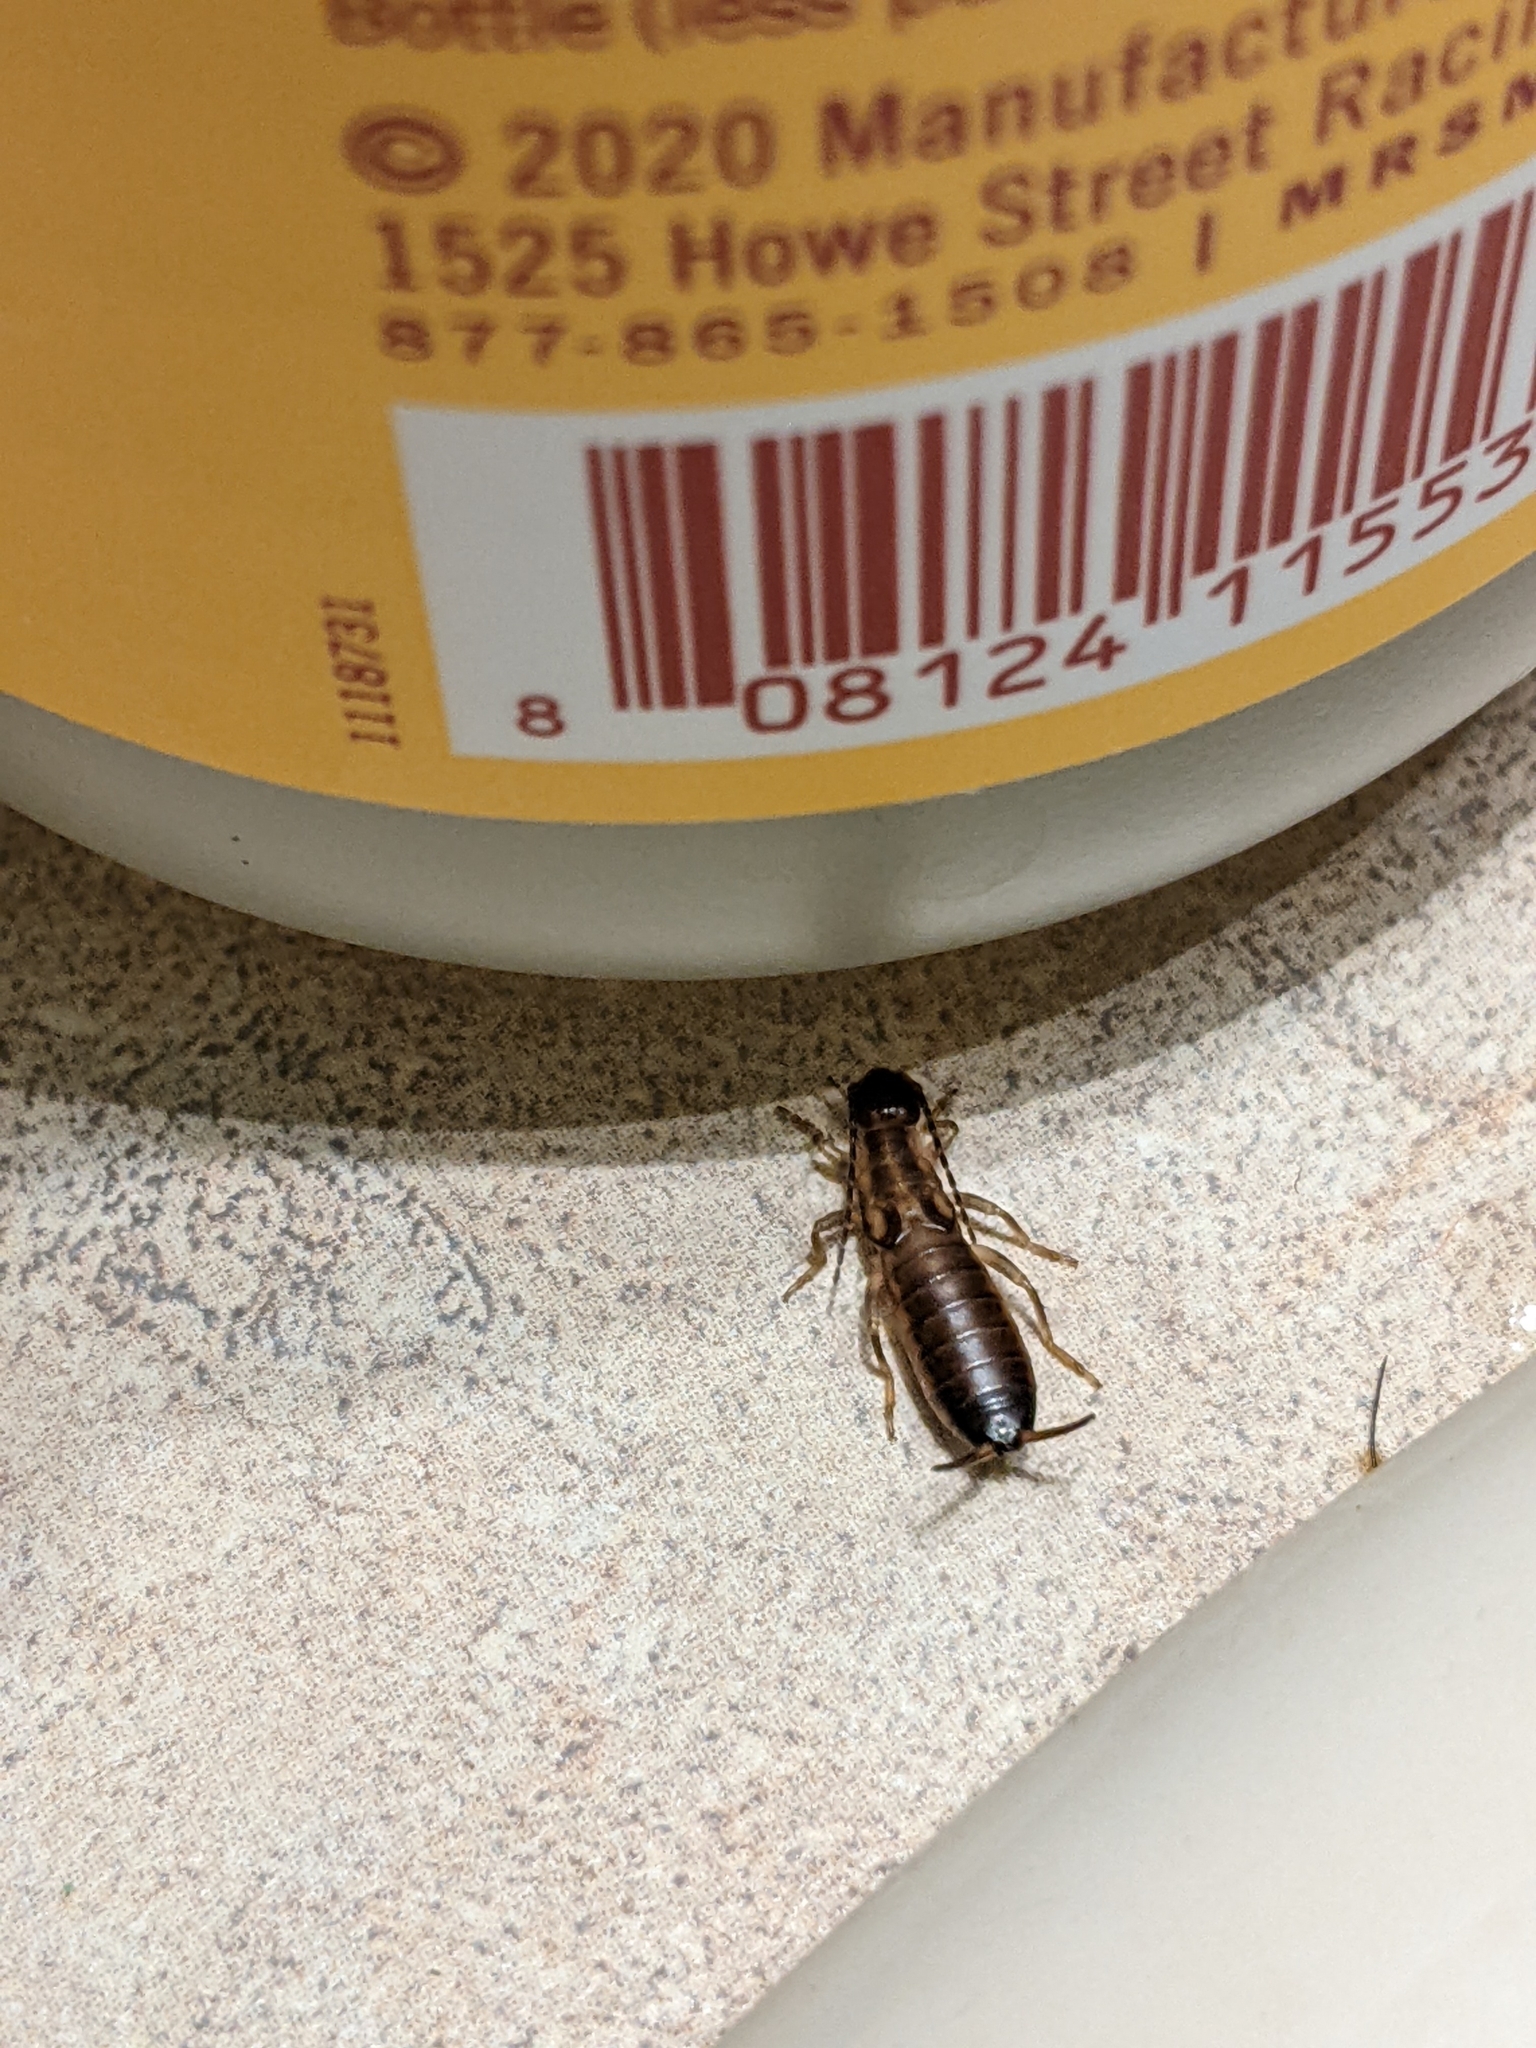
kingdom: Animalia
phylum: Arthropoda
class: Insecta
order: Dermaptera
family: Forficulidae
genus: Forficula
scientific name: Forficula
